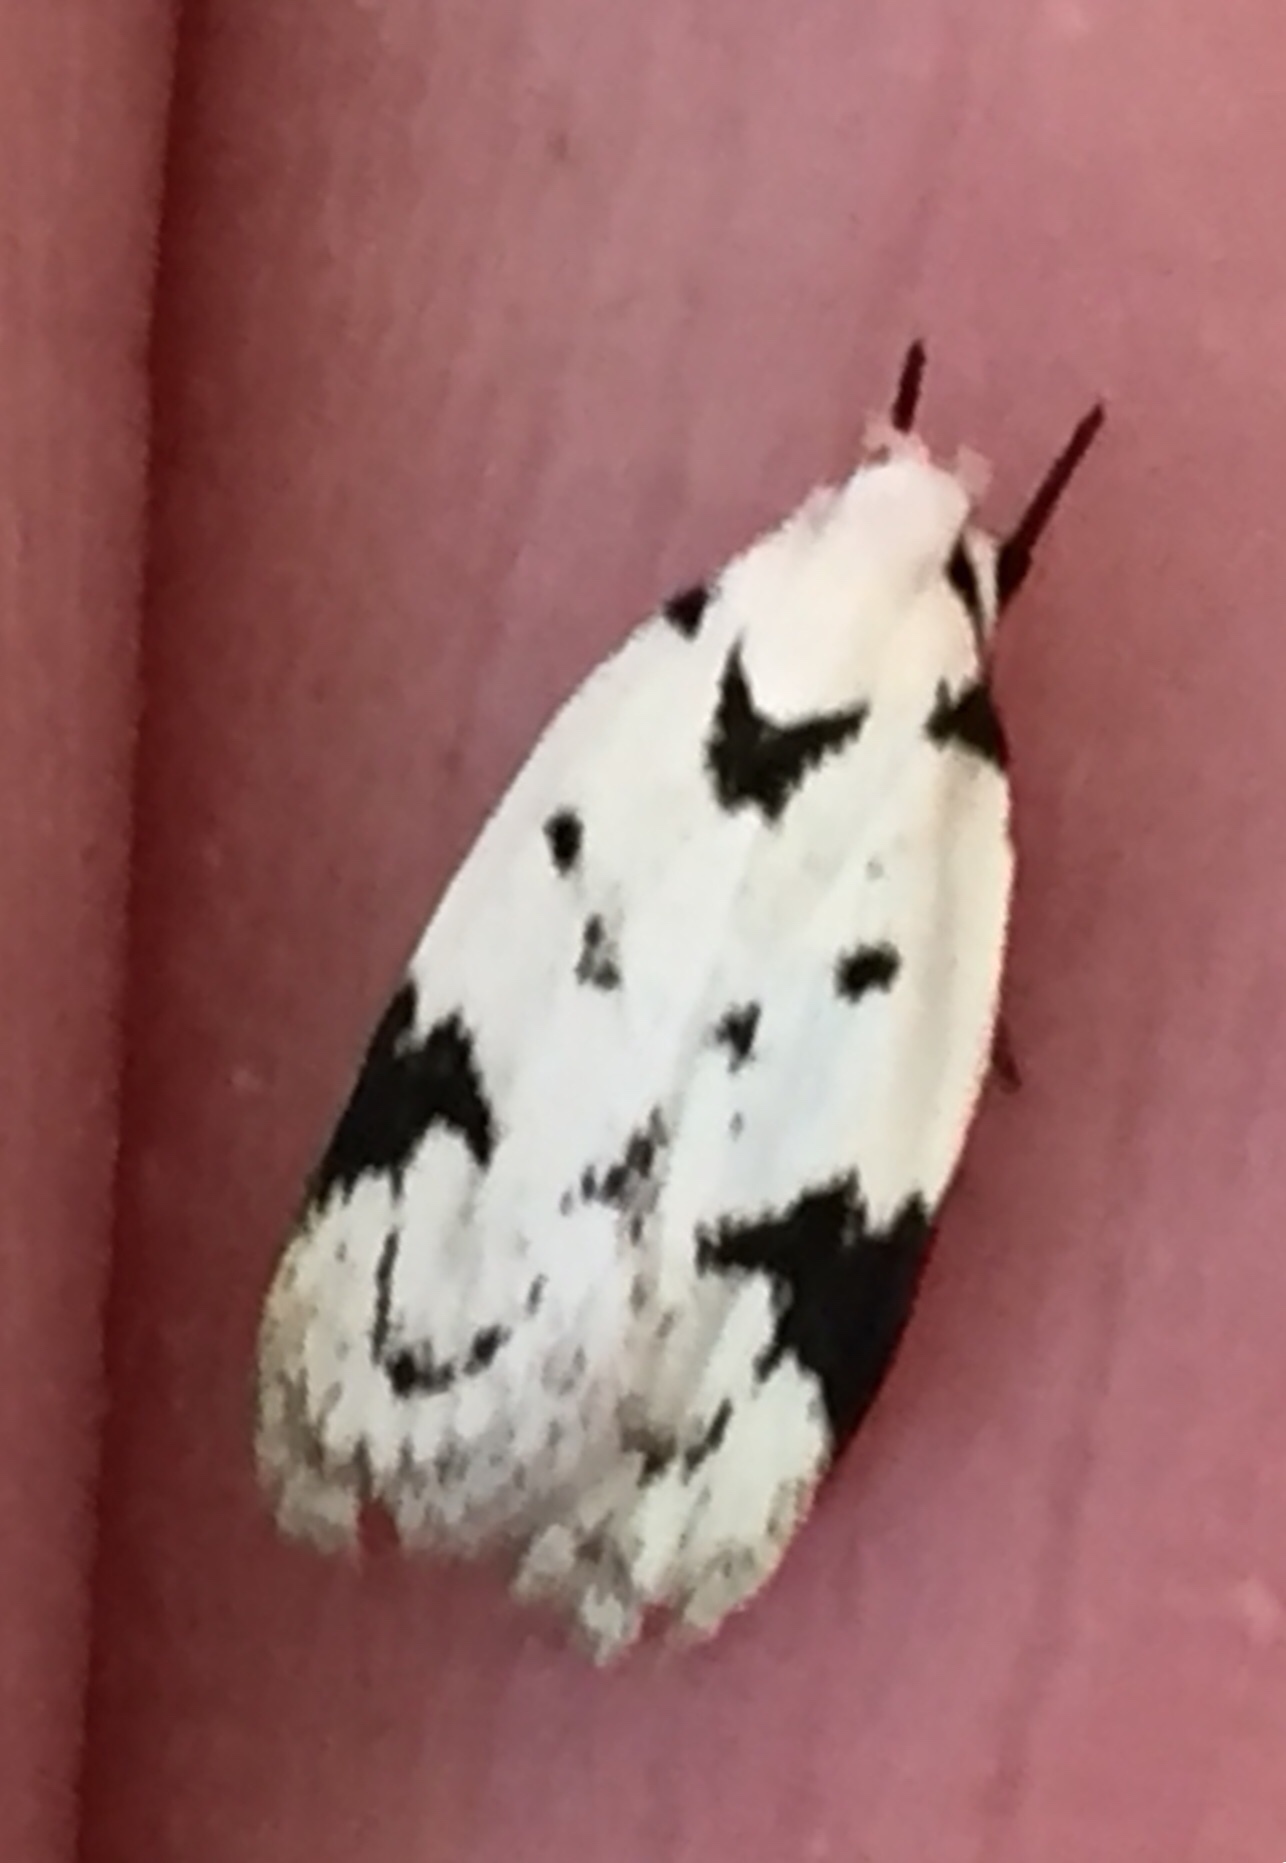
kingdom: Animalia
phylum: Arthropoda
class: Insecta
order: Lepidoptera
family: Oecophoridae
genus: Inga
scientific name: Inga sparsiciliella
